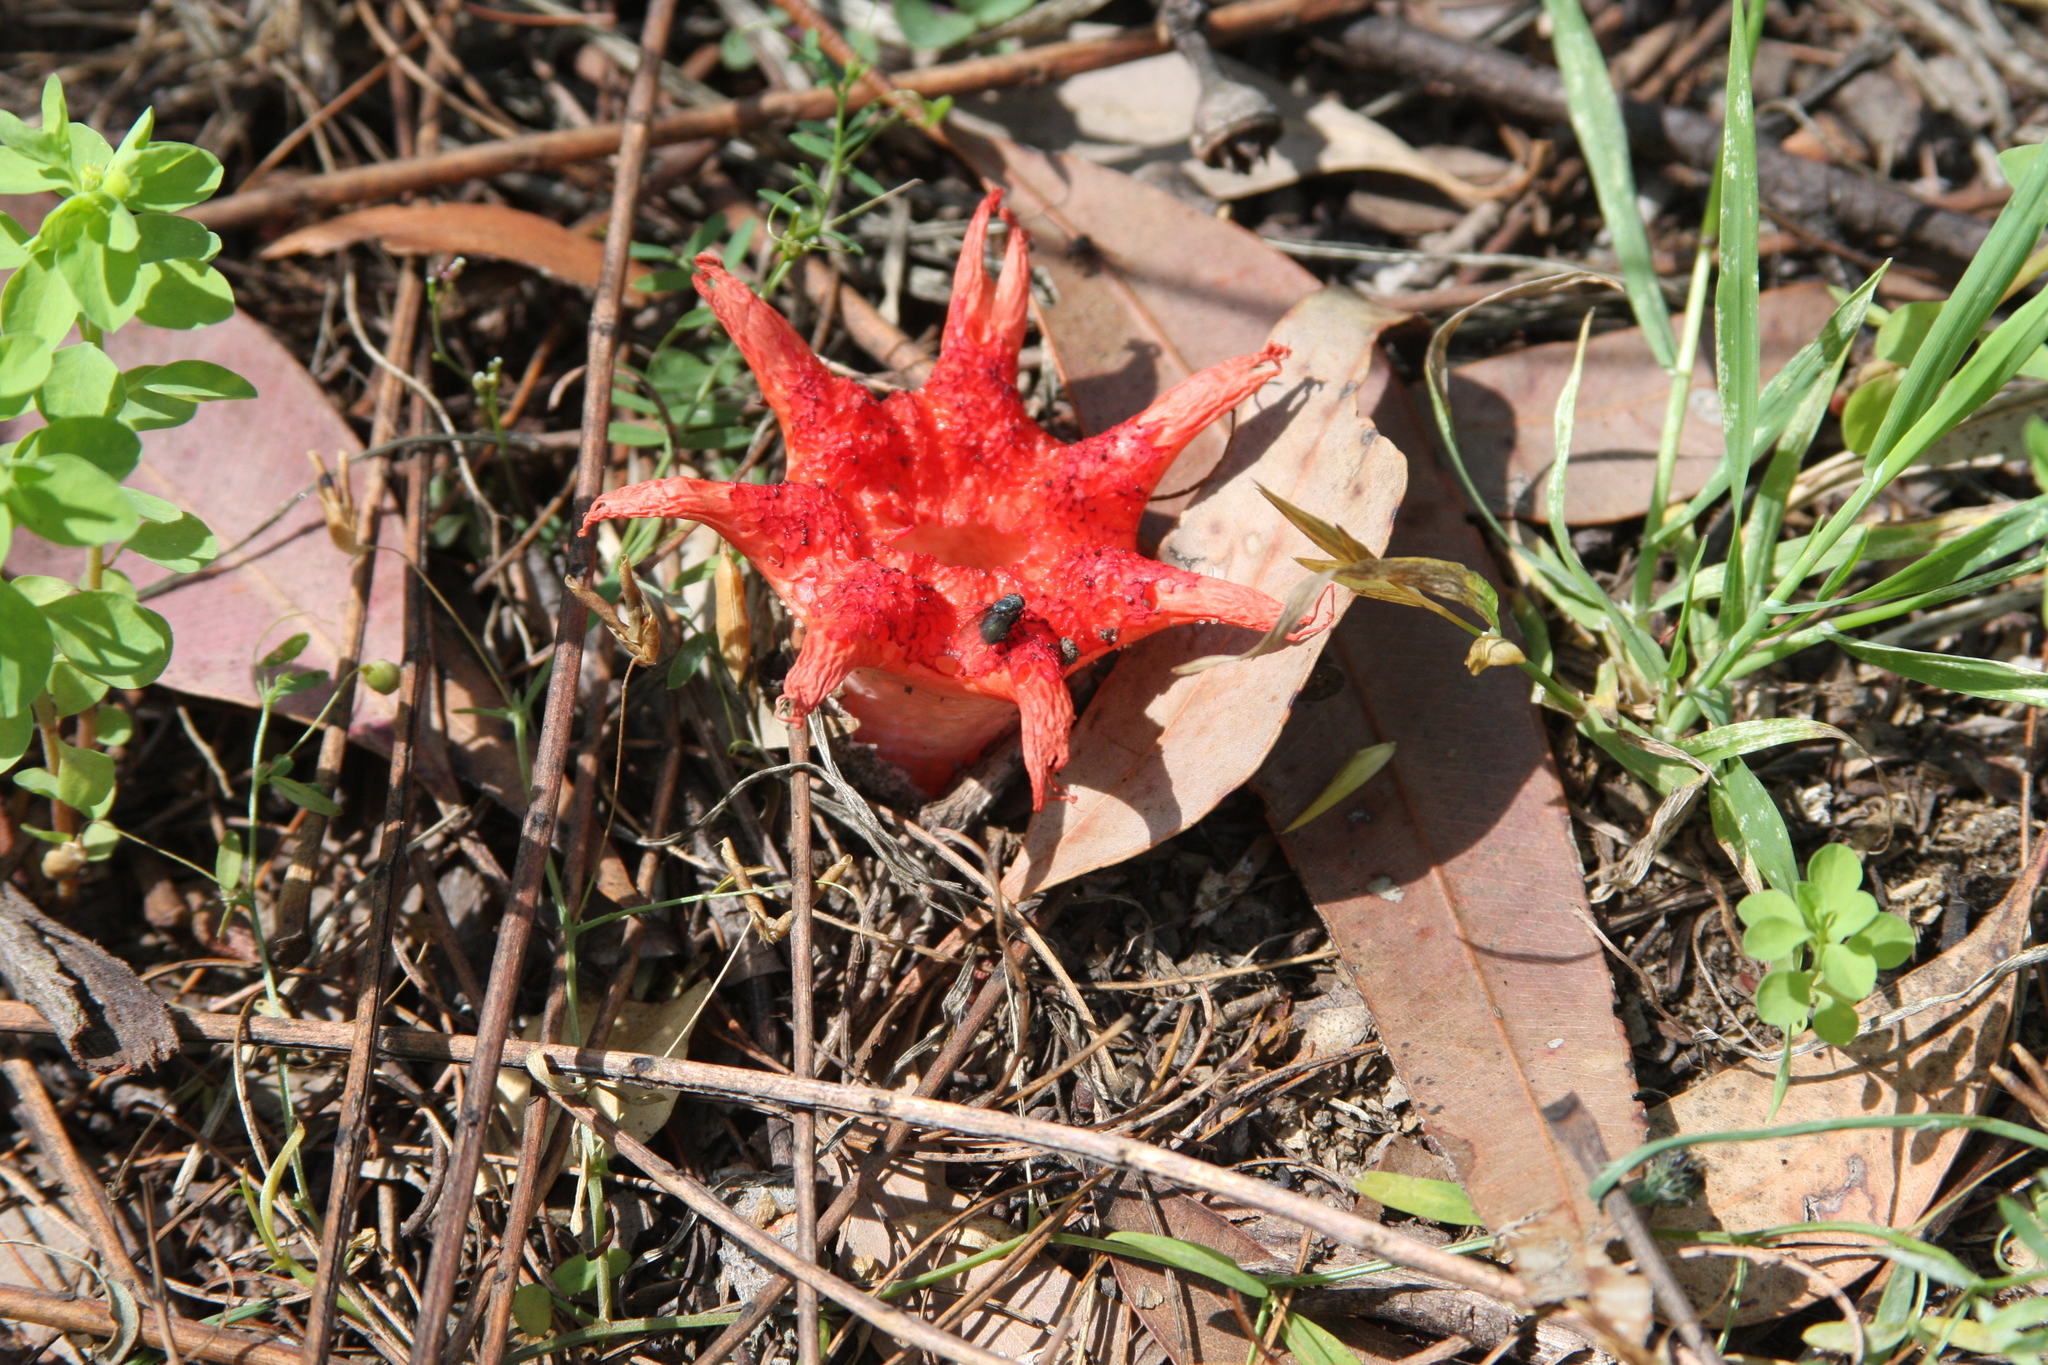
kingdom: Fungi
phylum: Basidiomycota
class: Agaricomycetes
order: Phallales
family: Phallaceae
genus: Aseroe
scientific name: Aseroe rubra
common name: Starfish fungus
